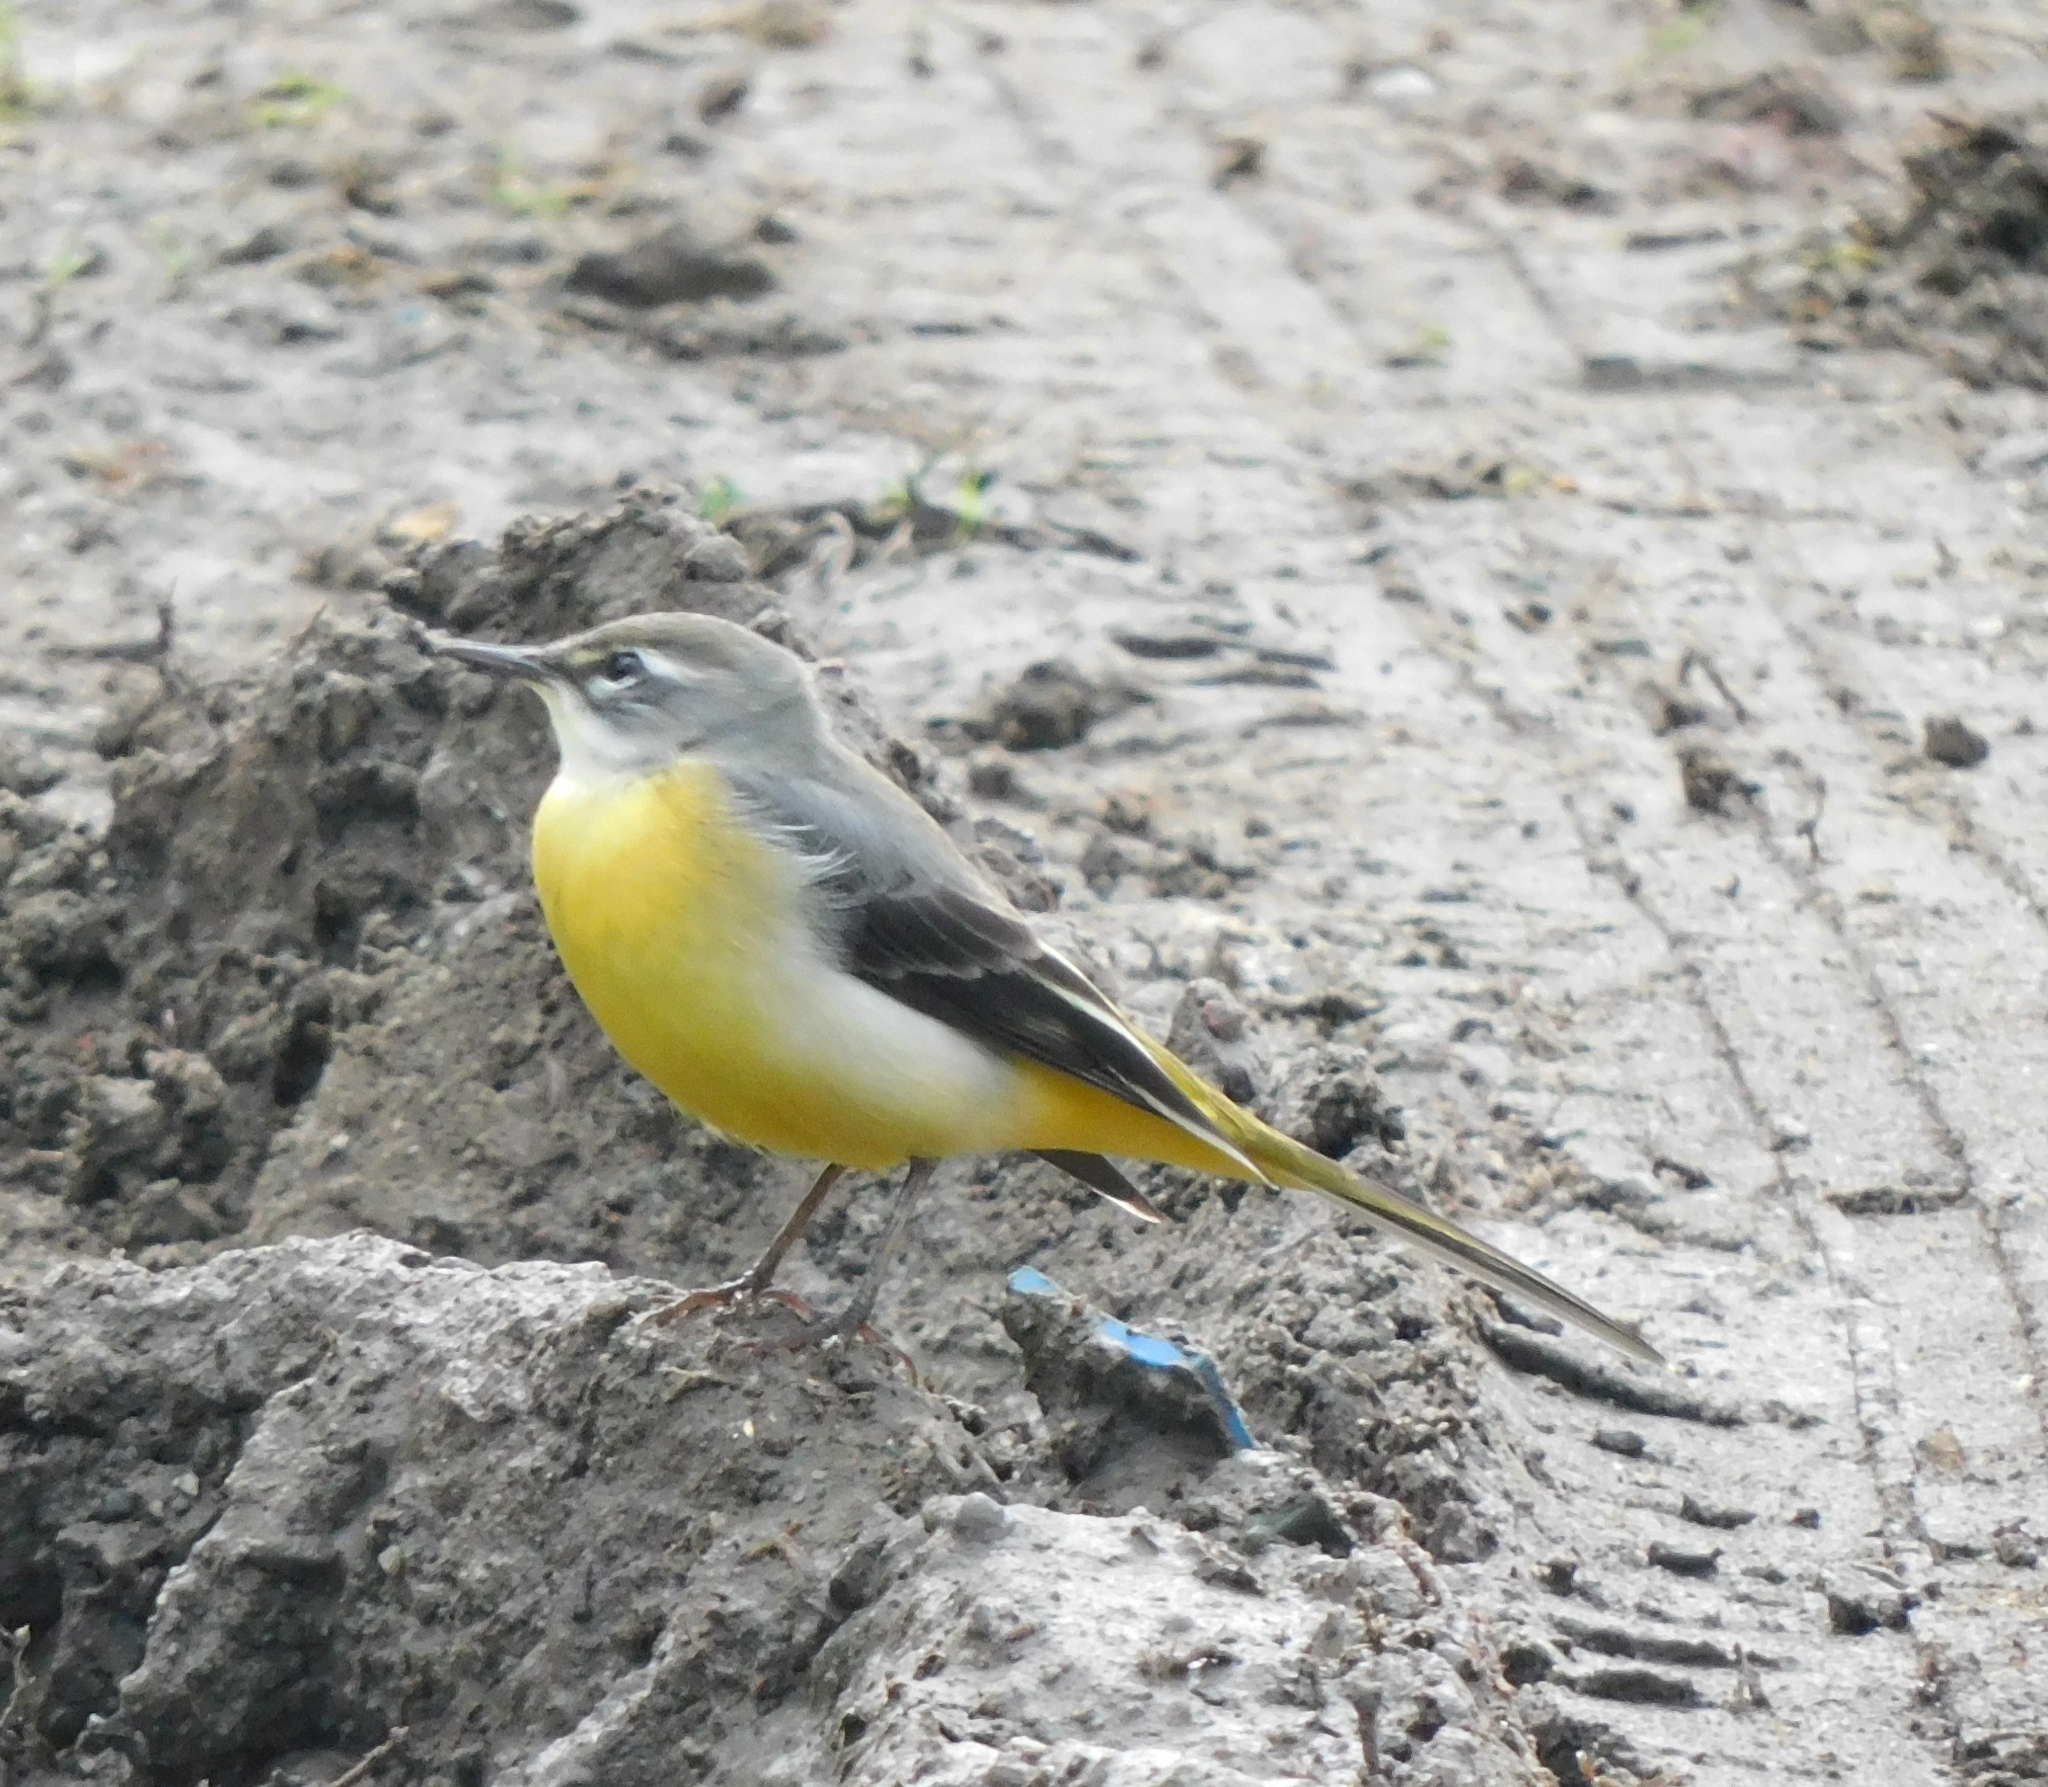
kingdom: Animalia
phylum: Chordata
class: Aves
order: Passeriformes
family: Motacillidae
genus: Motacilla
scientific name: Motacilla cinerea
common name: Grey wagtail
